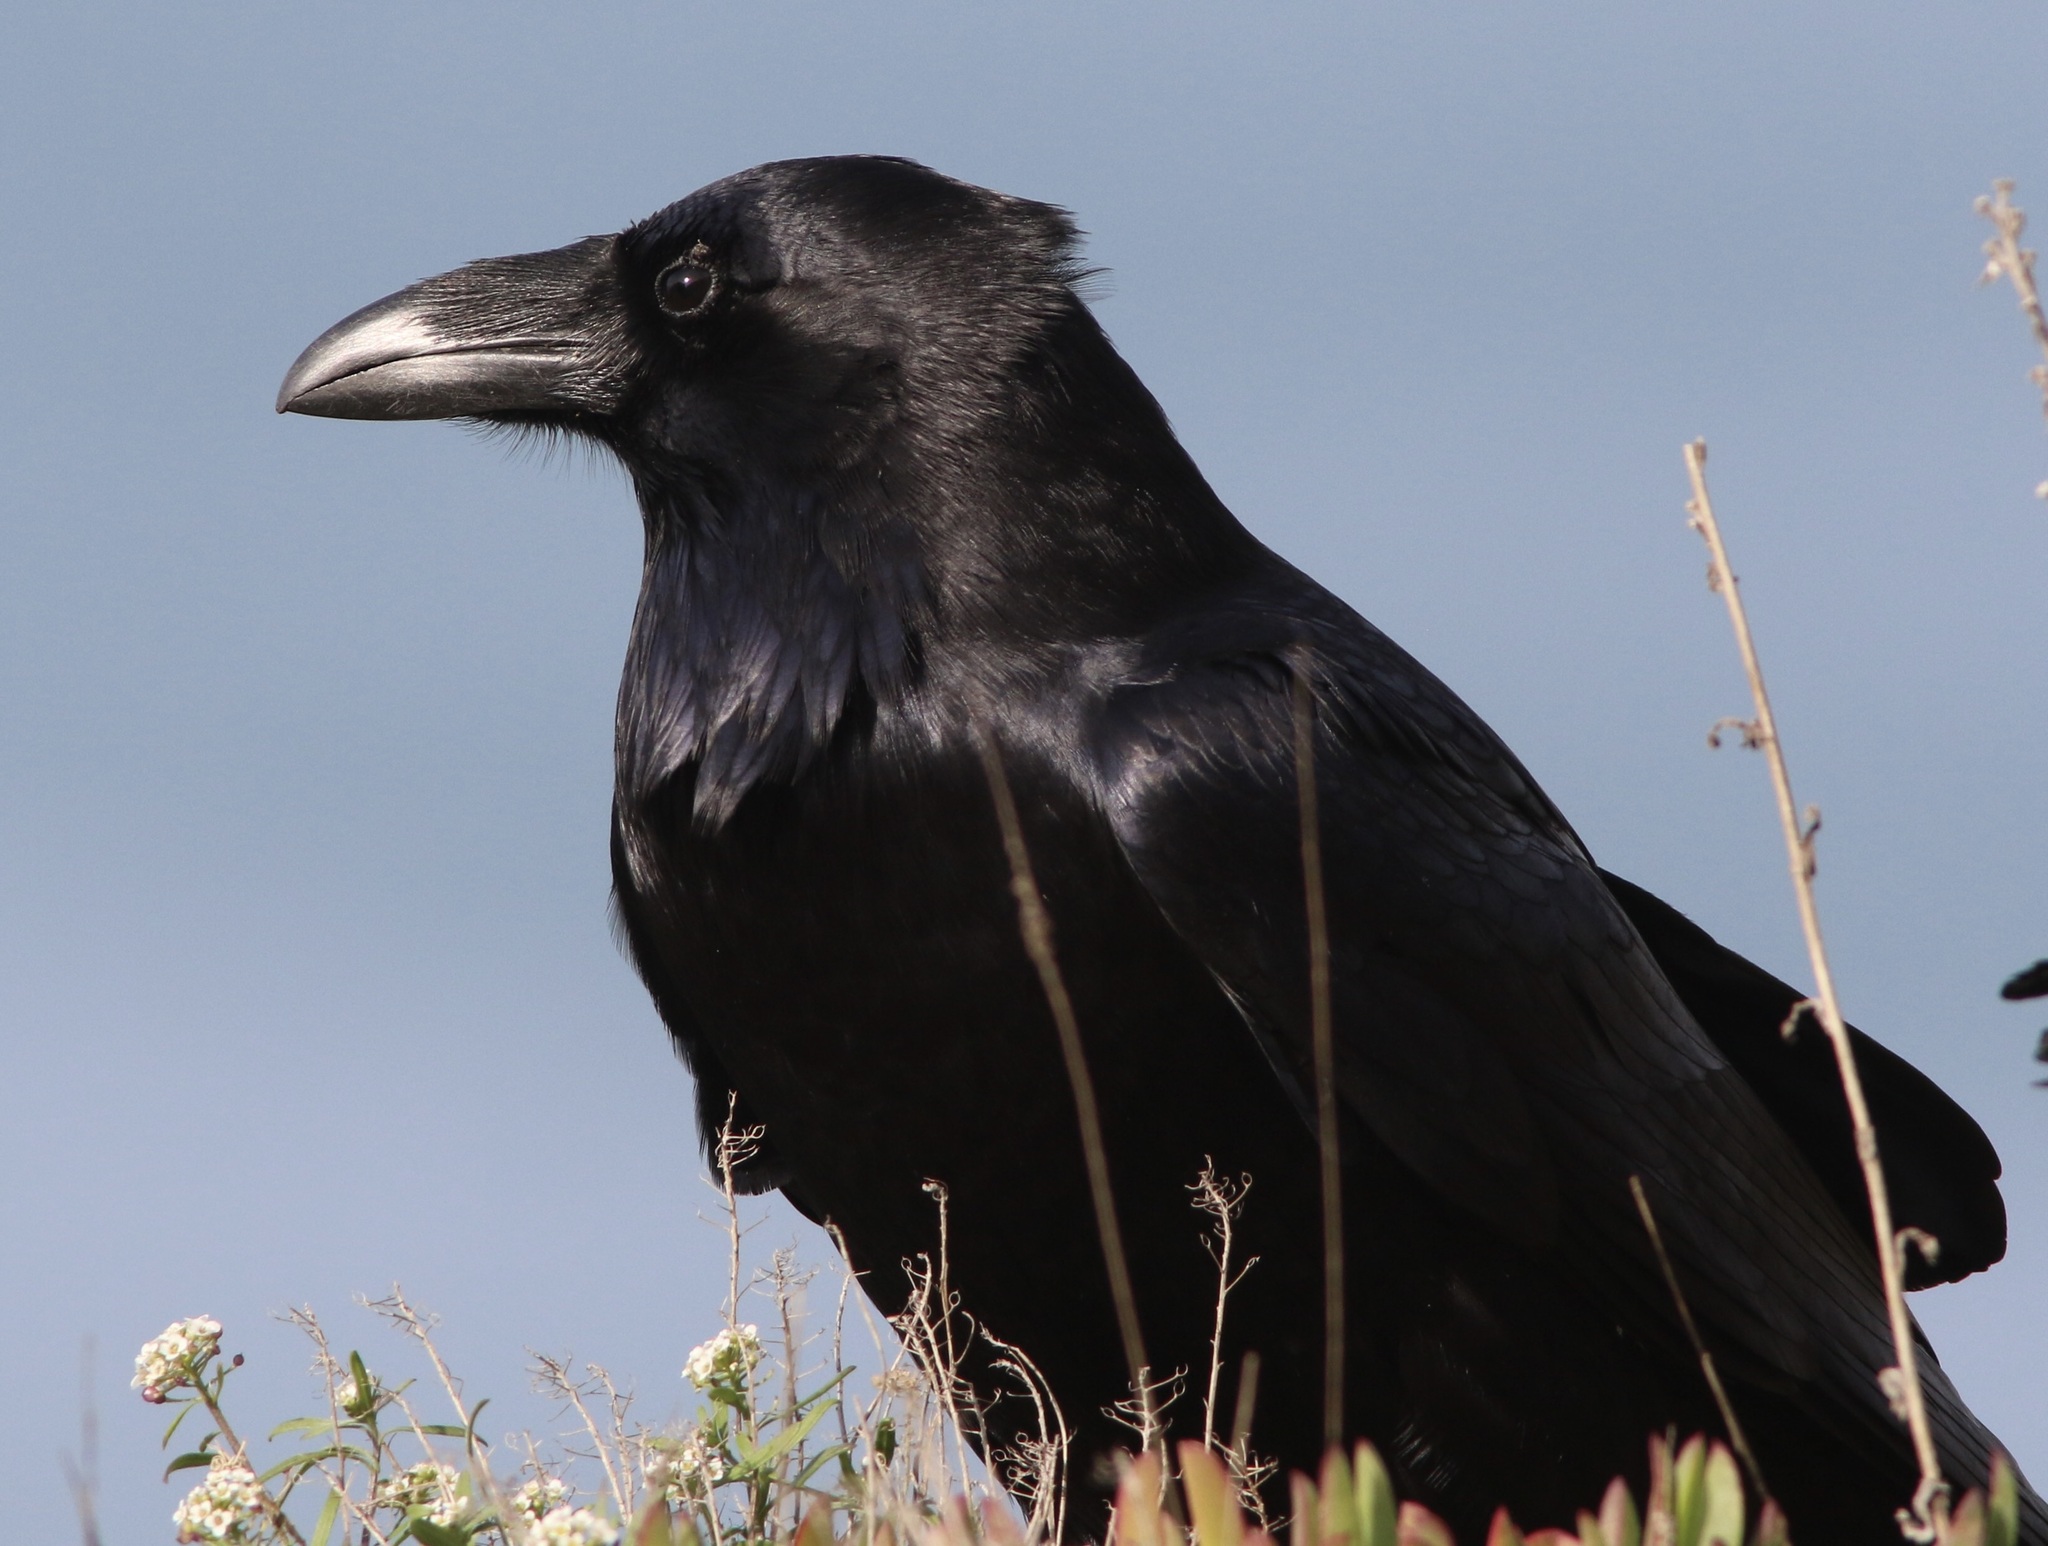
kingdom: Animalia
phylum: Chordata
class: Aves
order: Passeriformes
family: Corvidae
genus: Corvus
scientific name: Corvus corax
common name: Common raven
